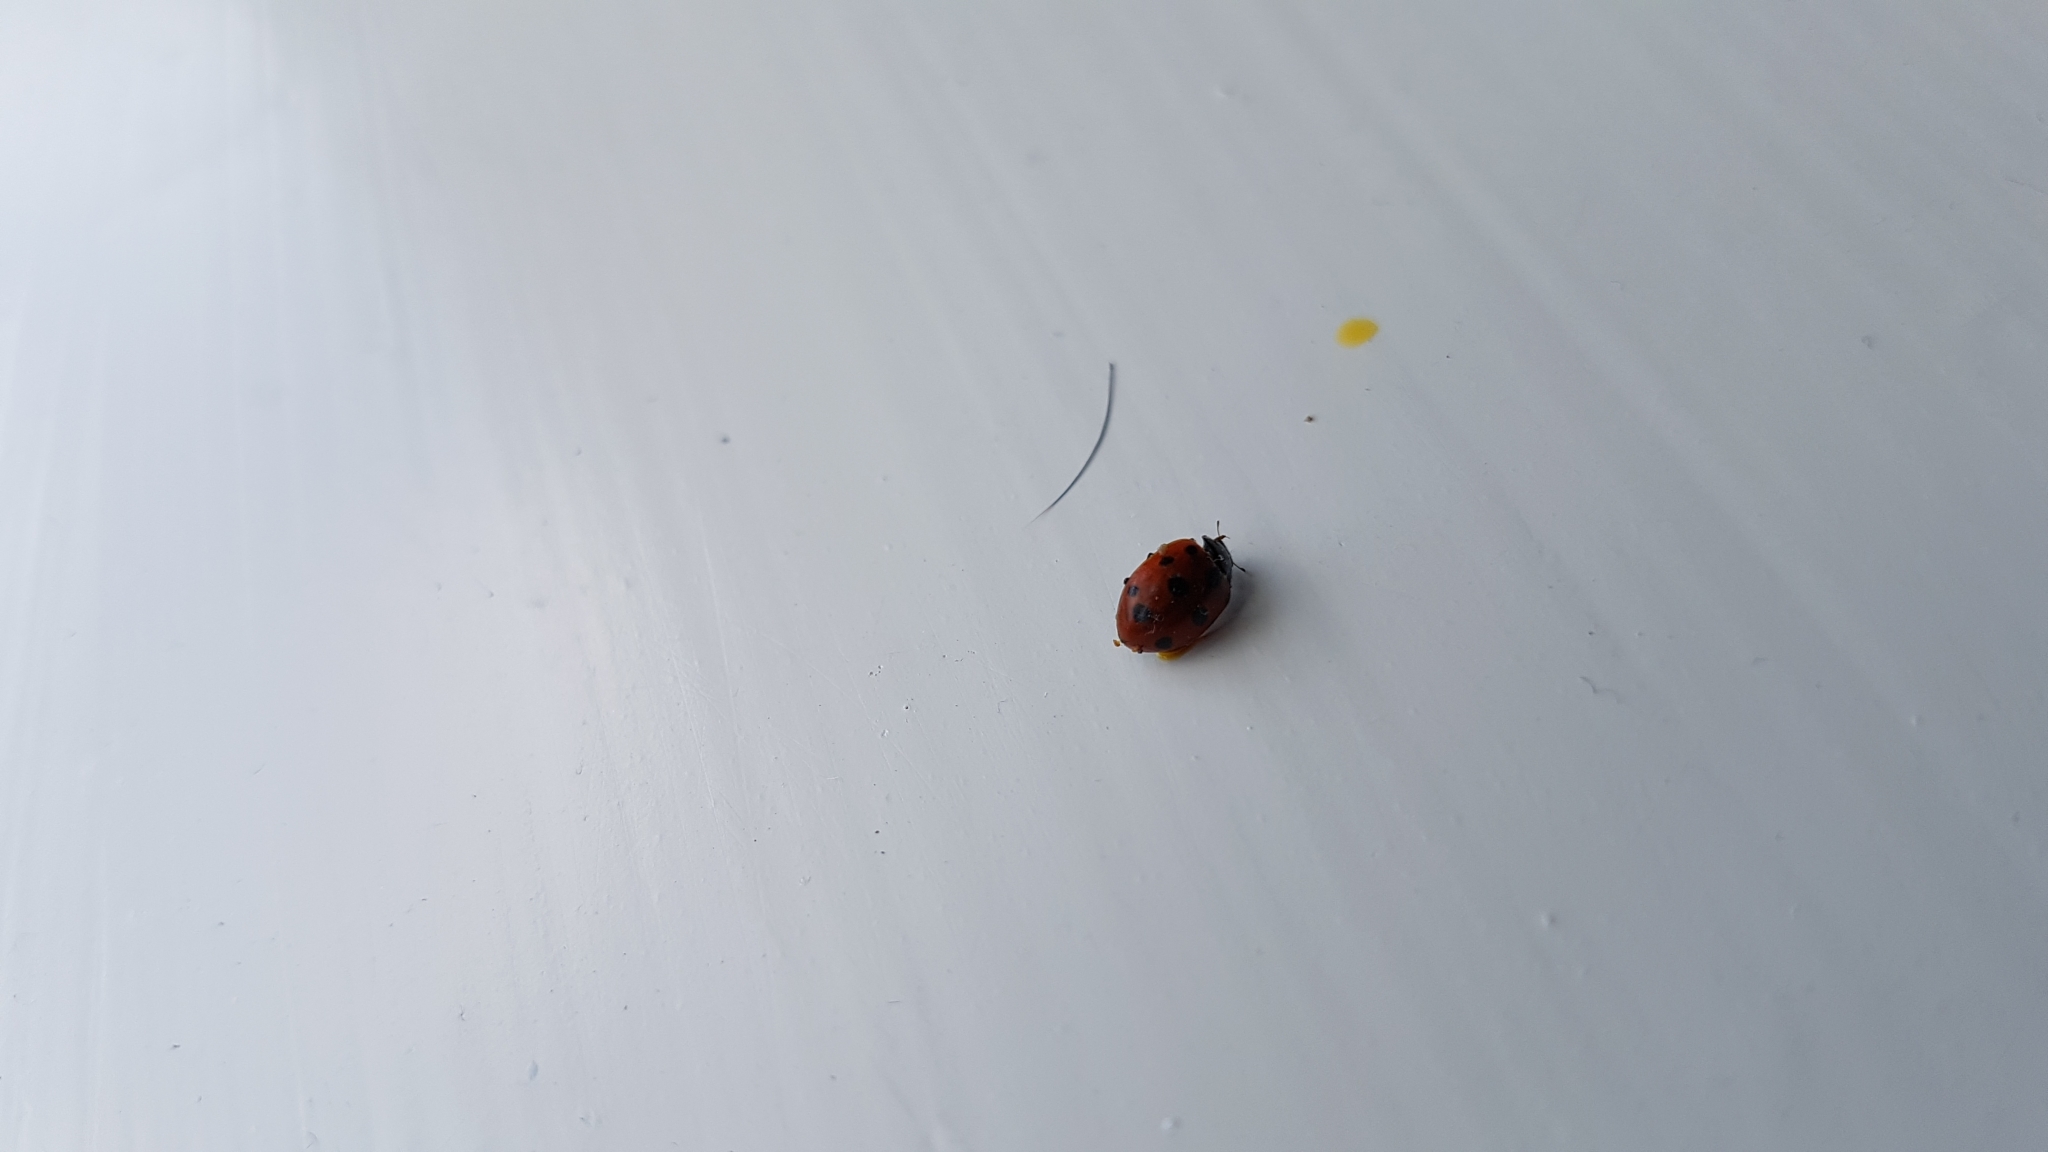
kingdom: Animalia
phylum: Arthropoda
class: Insecta
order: Coleoptera
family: Coccinellidae
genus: Coccinella
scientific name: Coccinella undecimpunctata
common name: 11-spot ladybird
